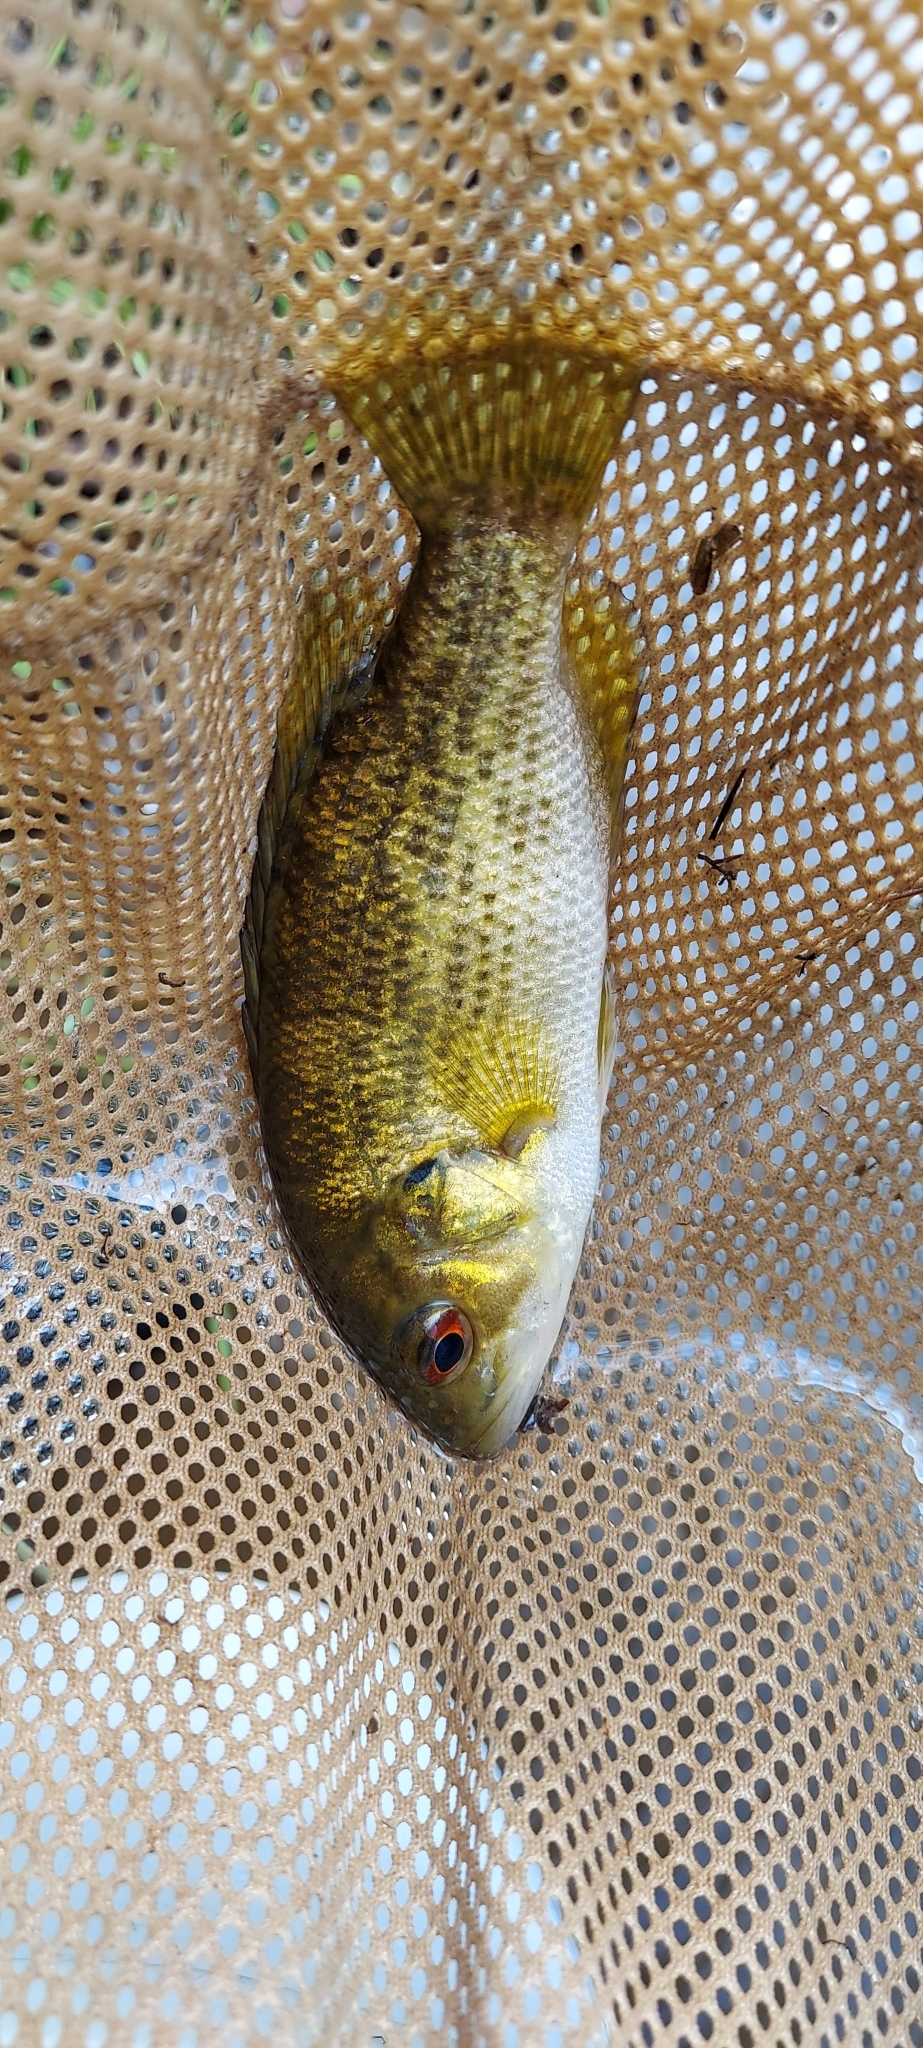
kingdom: Animalia
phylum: Chordata
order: Perciformes
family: Centrarchidae
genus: Ambloplites
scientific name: Ambloplites rupestris
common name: Rock bass
